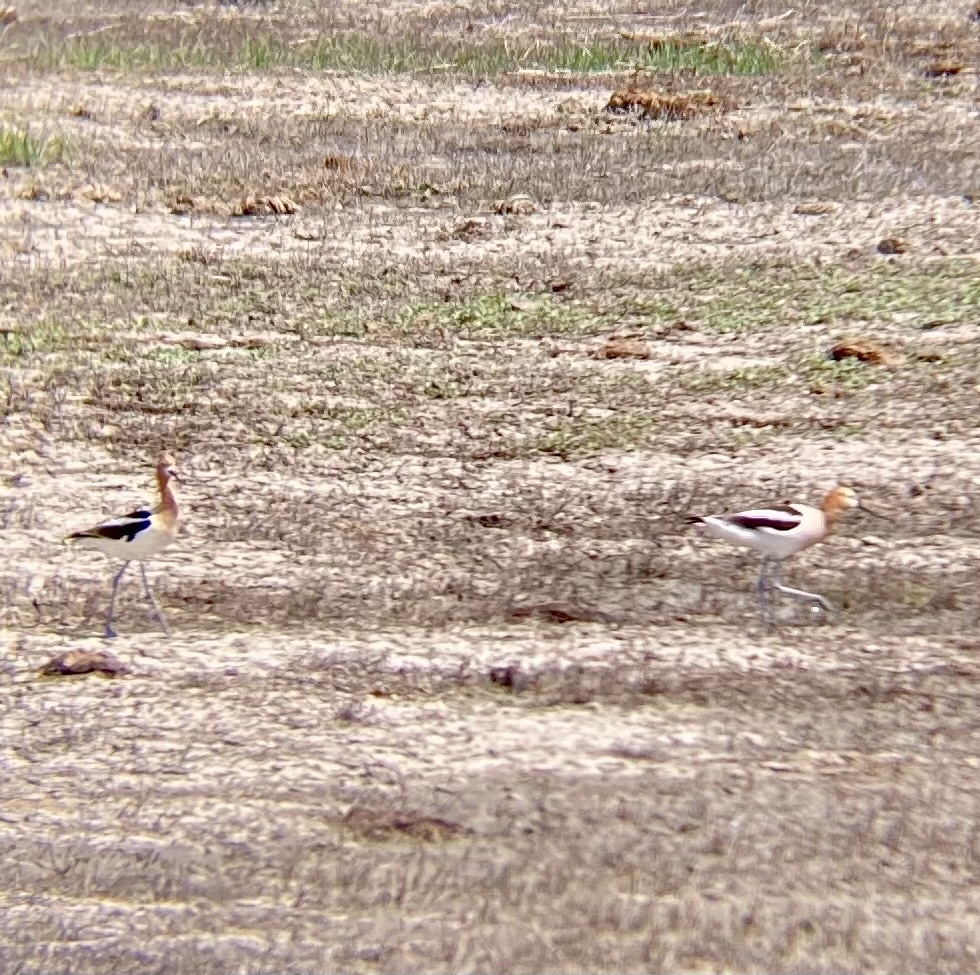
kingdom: Animalia
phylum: Chordata
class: Aves
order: Charadriiformes
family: Recurvirostridae
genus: Recurvirostra
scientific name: Recurvirostra americana
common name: American avocet
